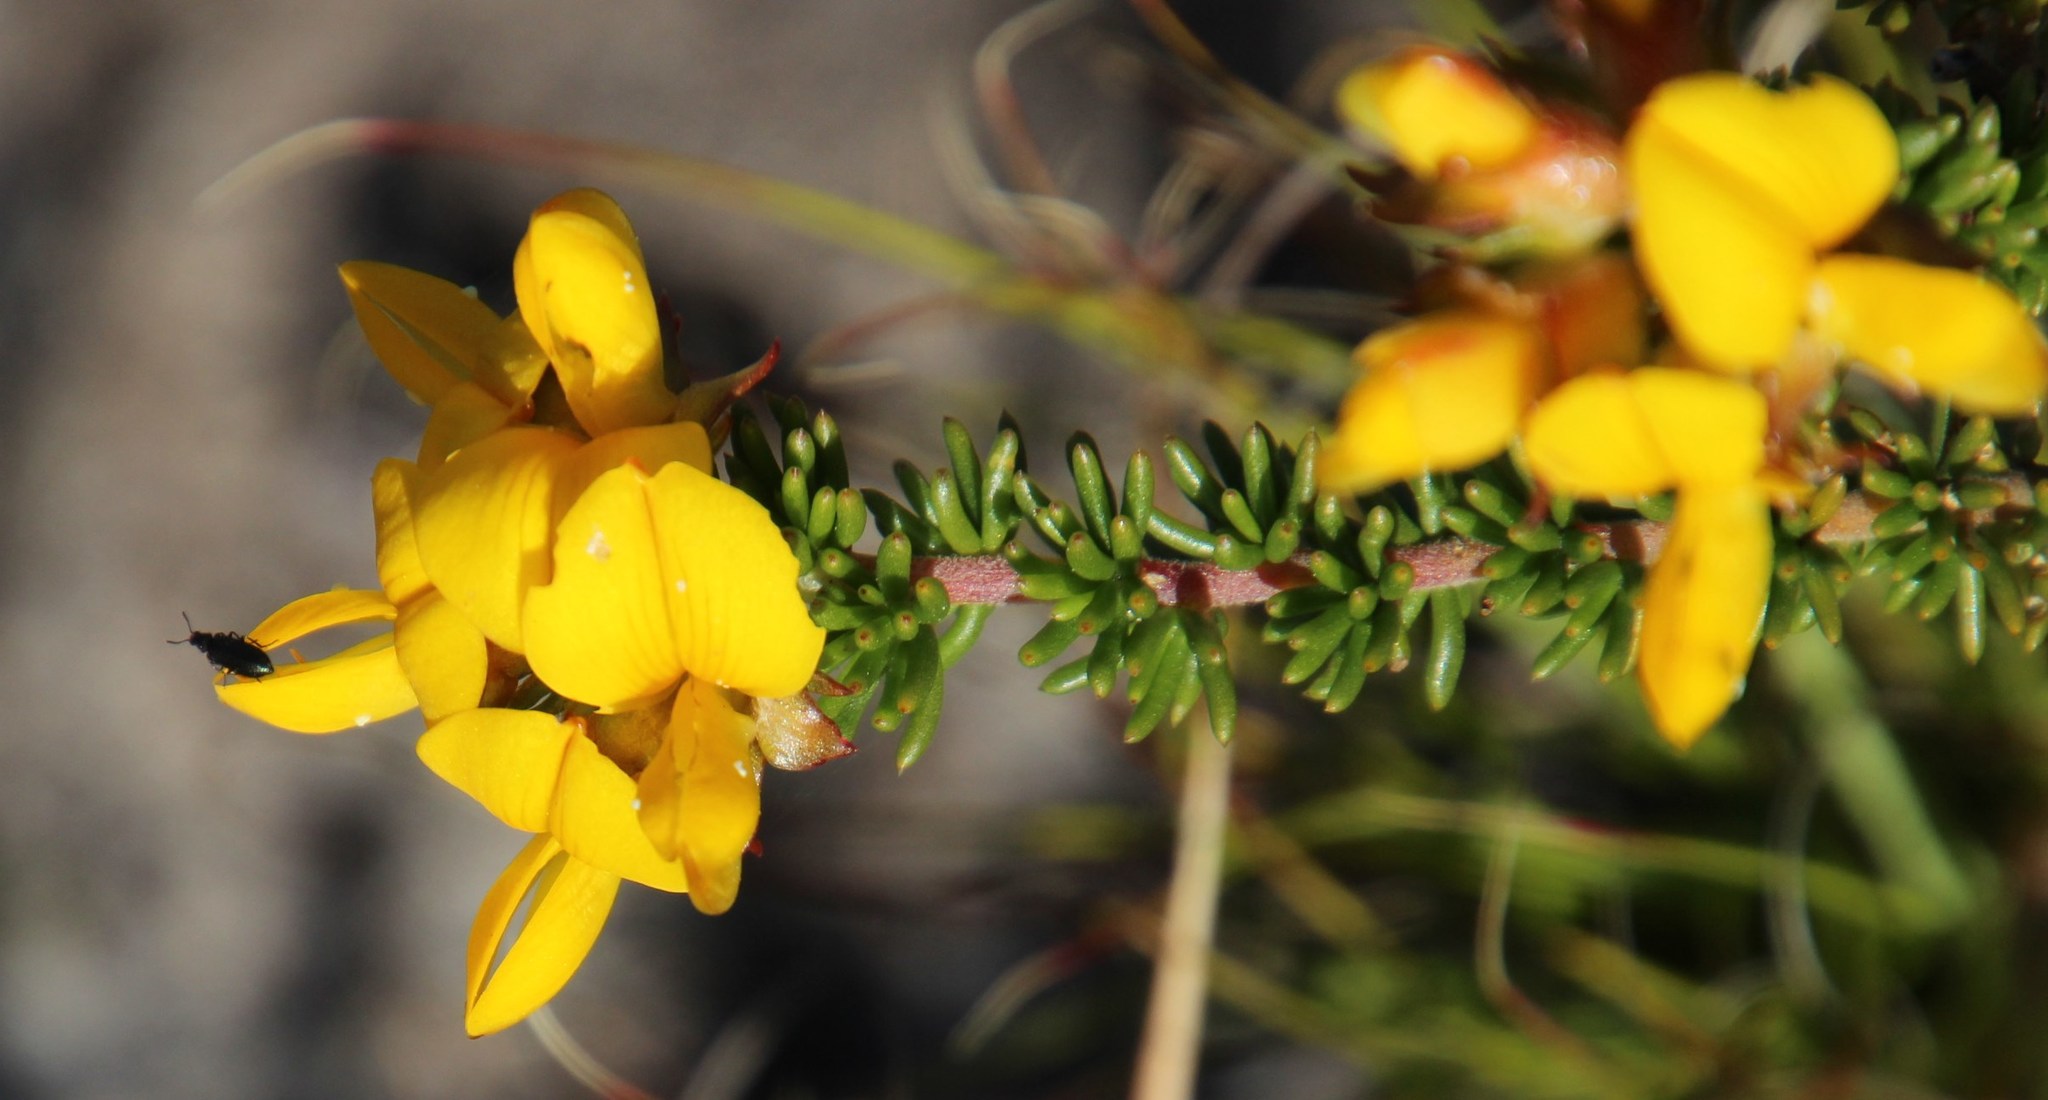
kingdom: Plantae
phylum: Tracheophyta
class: Magnoliopsida
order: Fabales
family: Fabaceae
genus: Aspalathus
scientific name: Aspalathus carnosa
